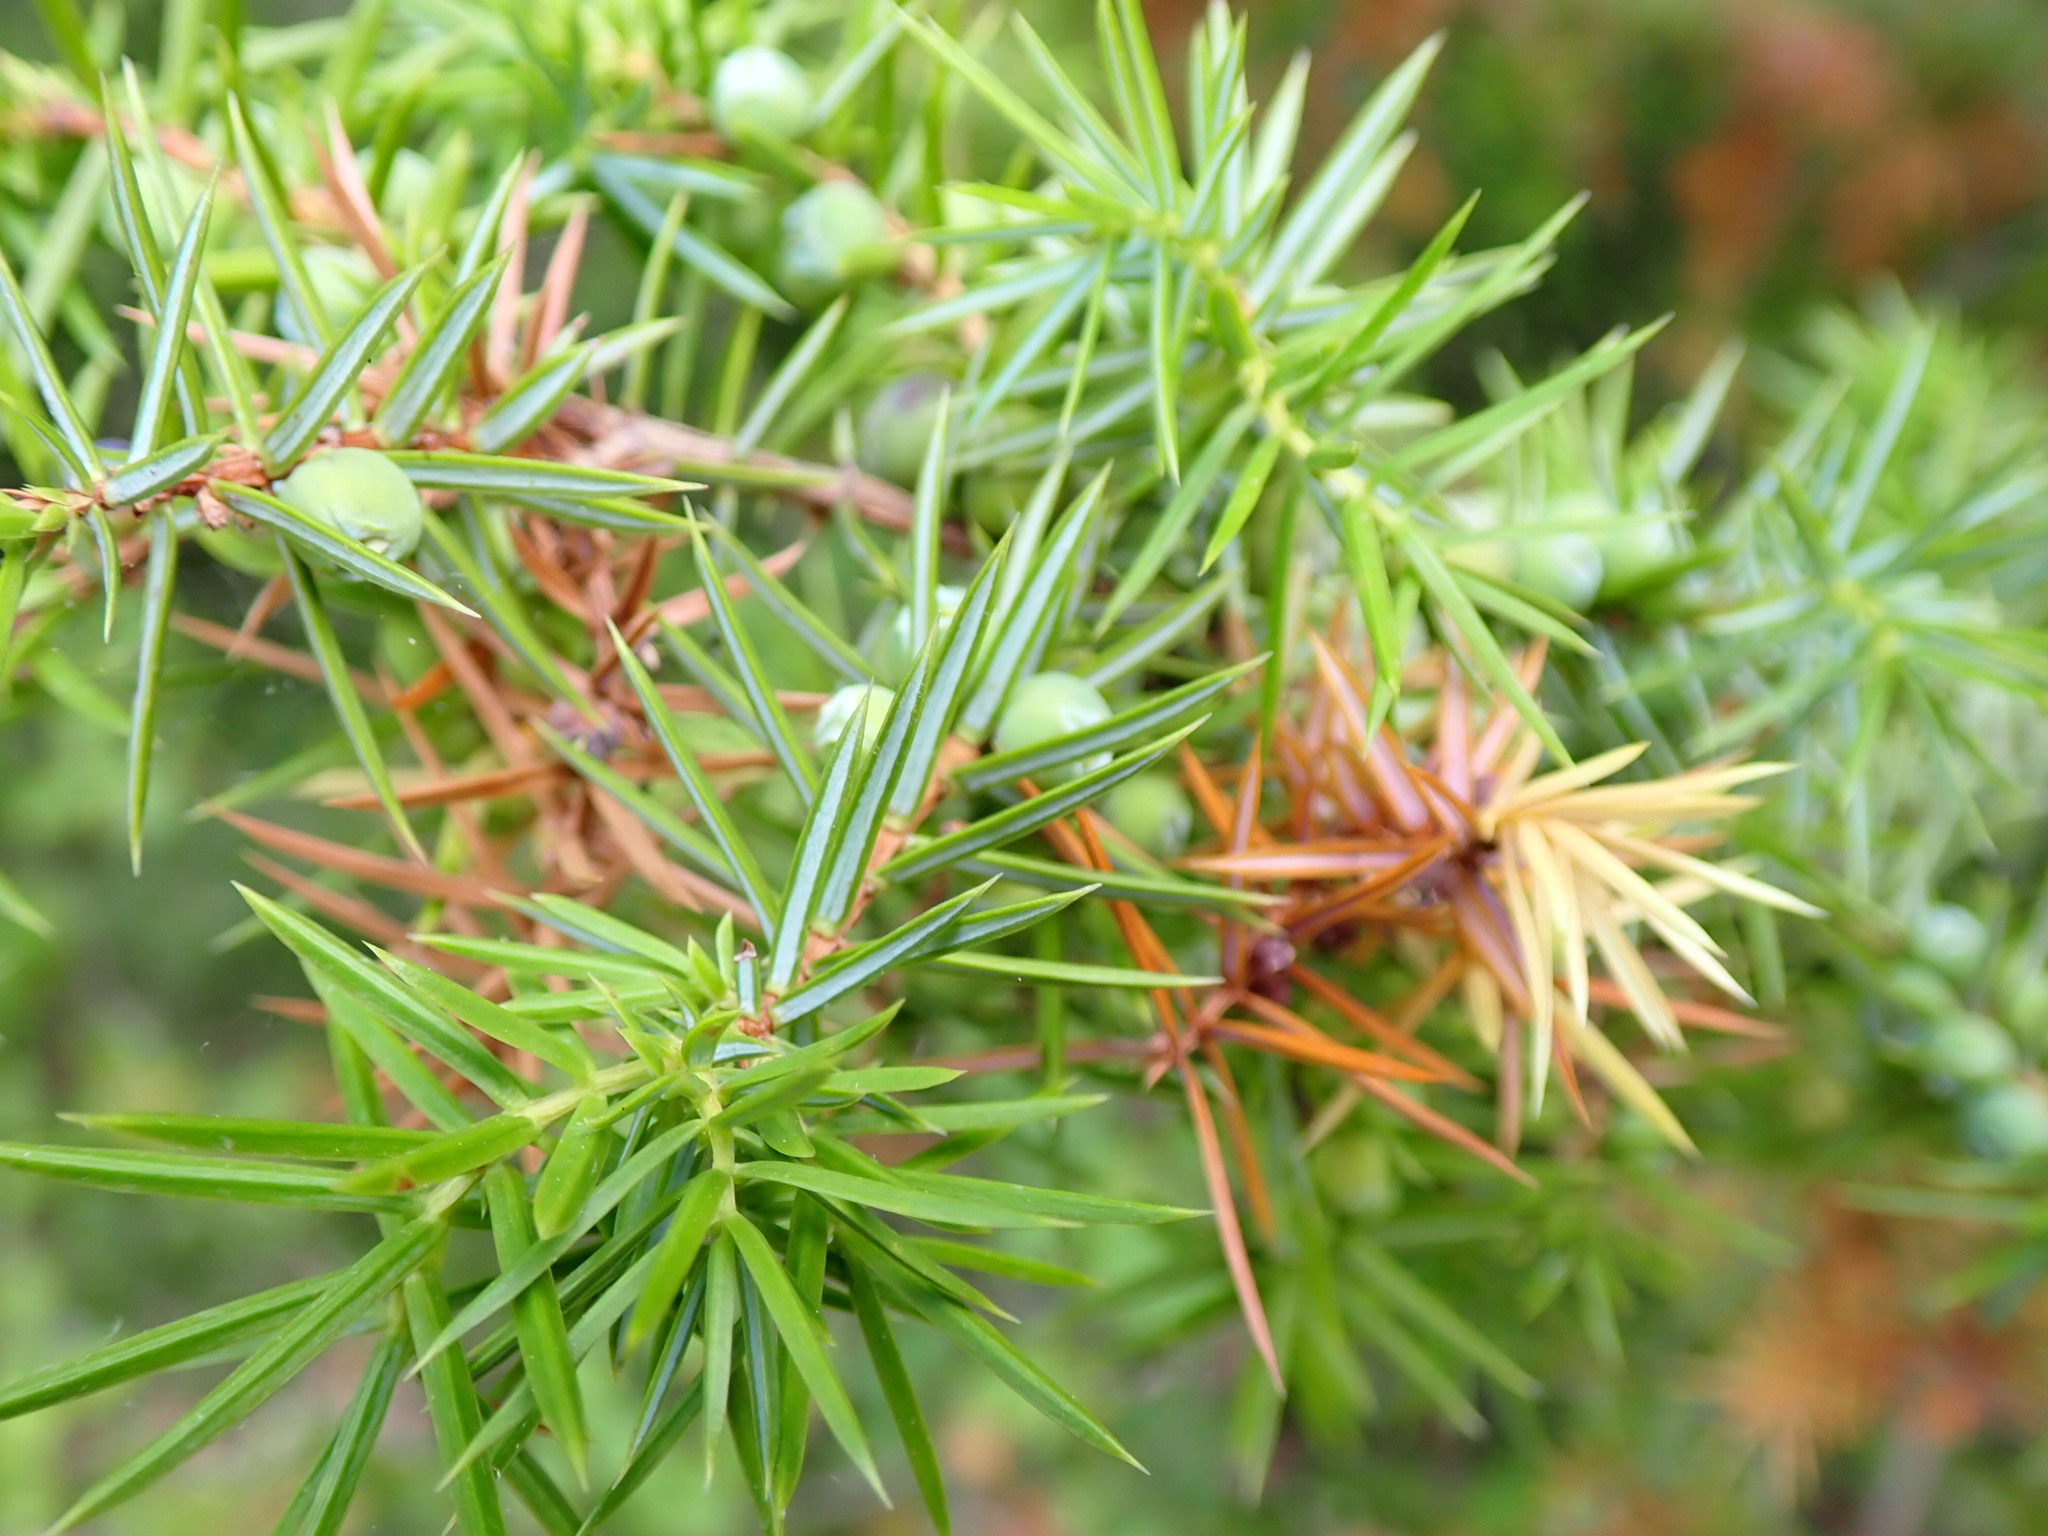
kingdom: Plantae
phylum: Tracheophyta
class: Pinopsida
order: Pinales
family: Cupressaceae
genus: Juniperus
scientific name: Juniperus communis
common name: Common juniper
